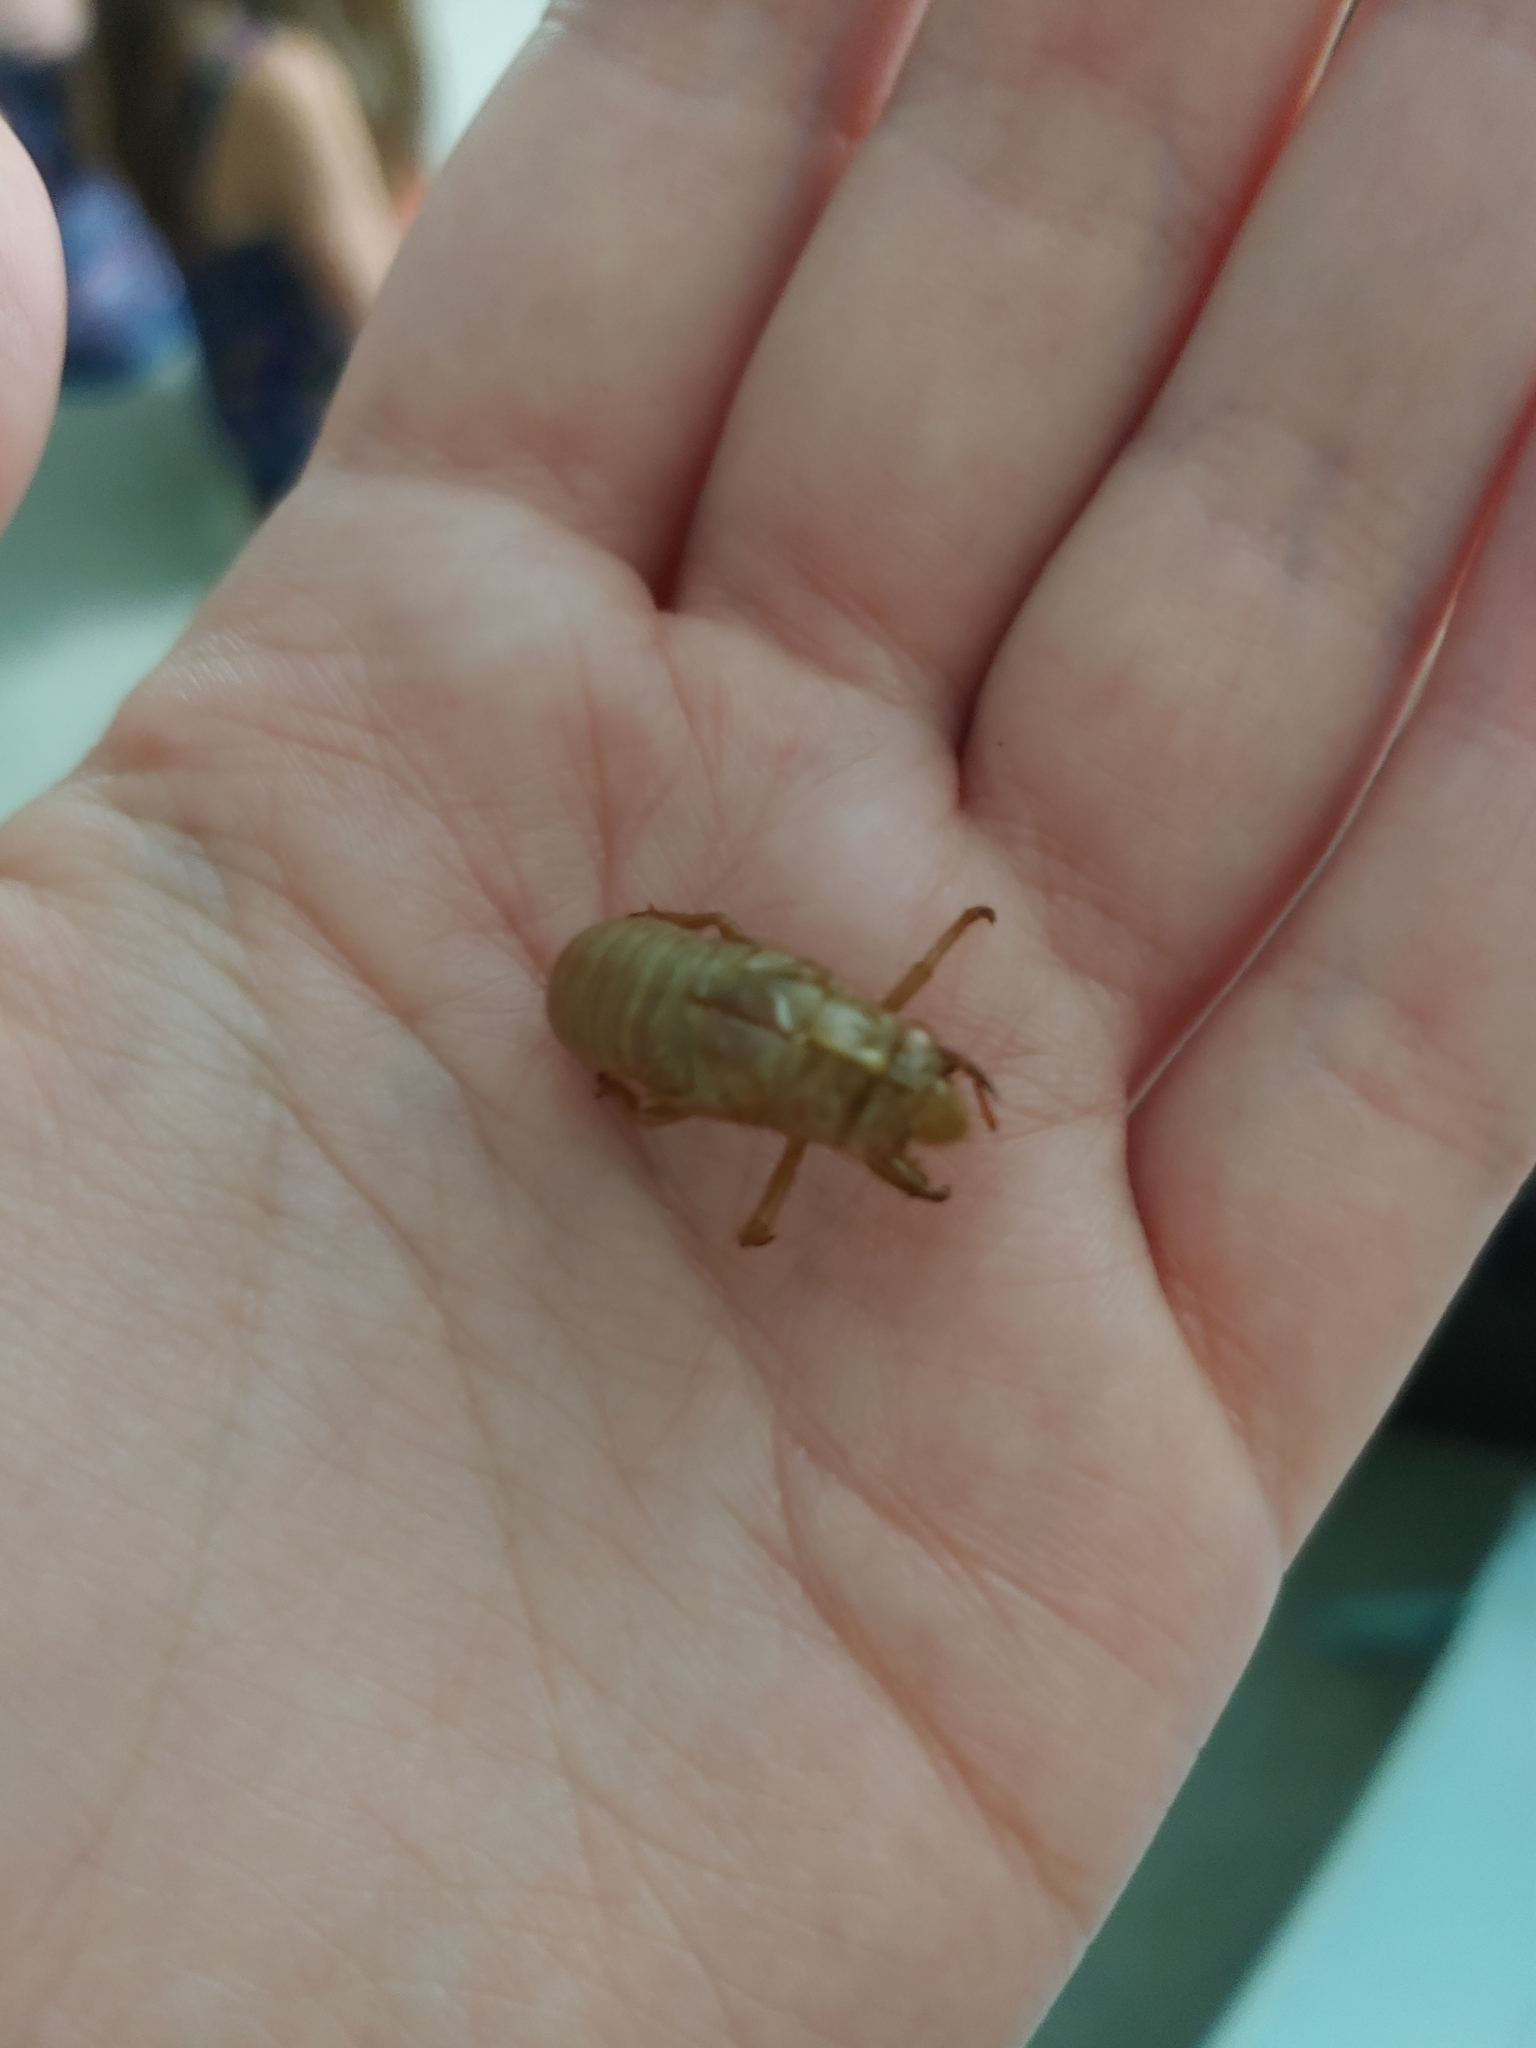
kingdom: Animalia
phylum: Arthropoda
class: Insecta
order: Hemiptera
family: Cicadidae
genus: Magicicada
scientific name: Magicicada
